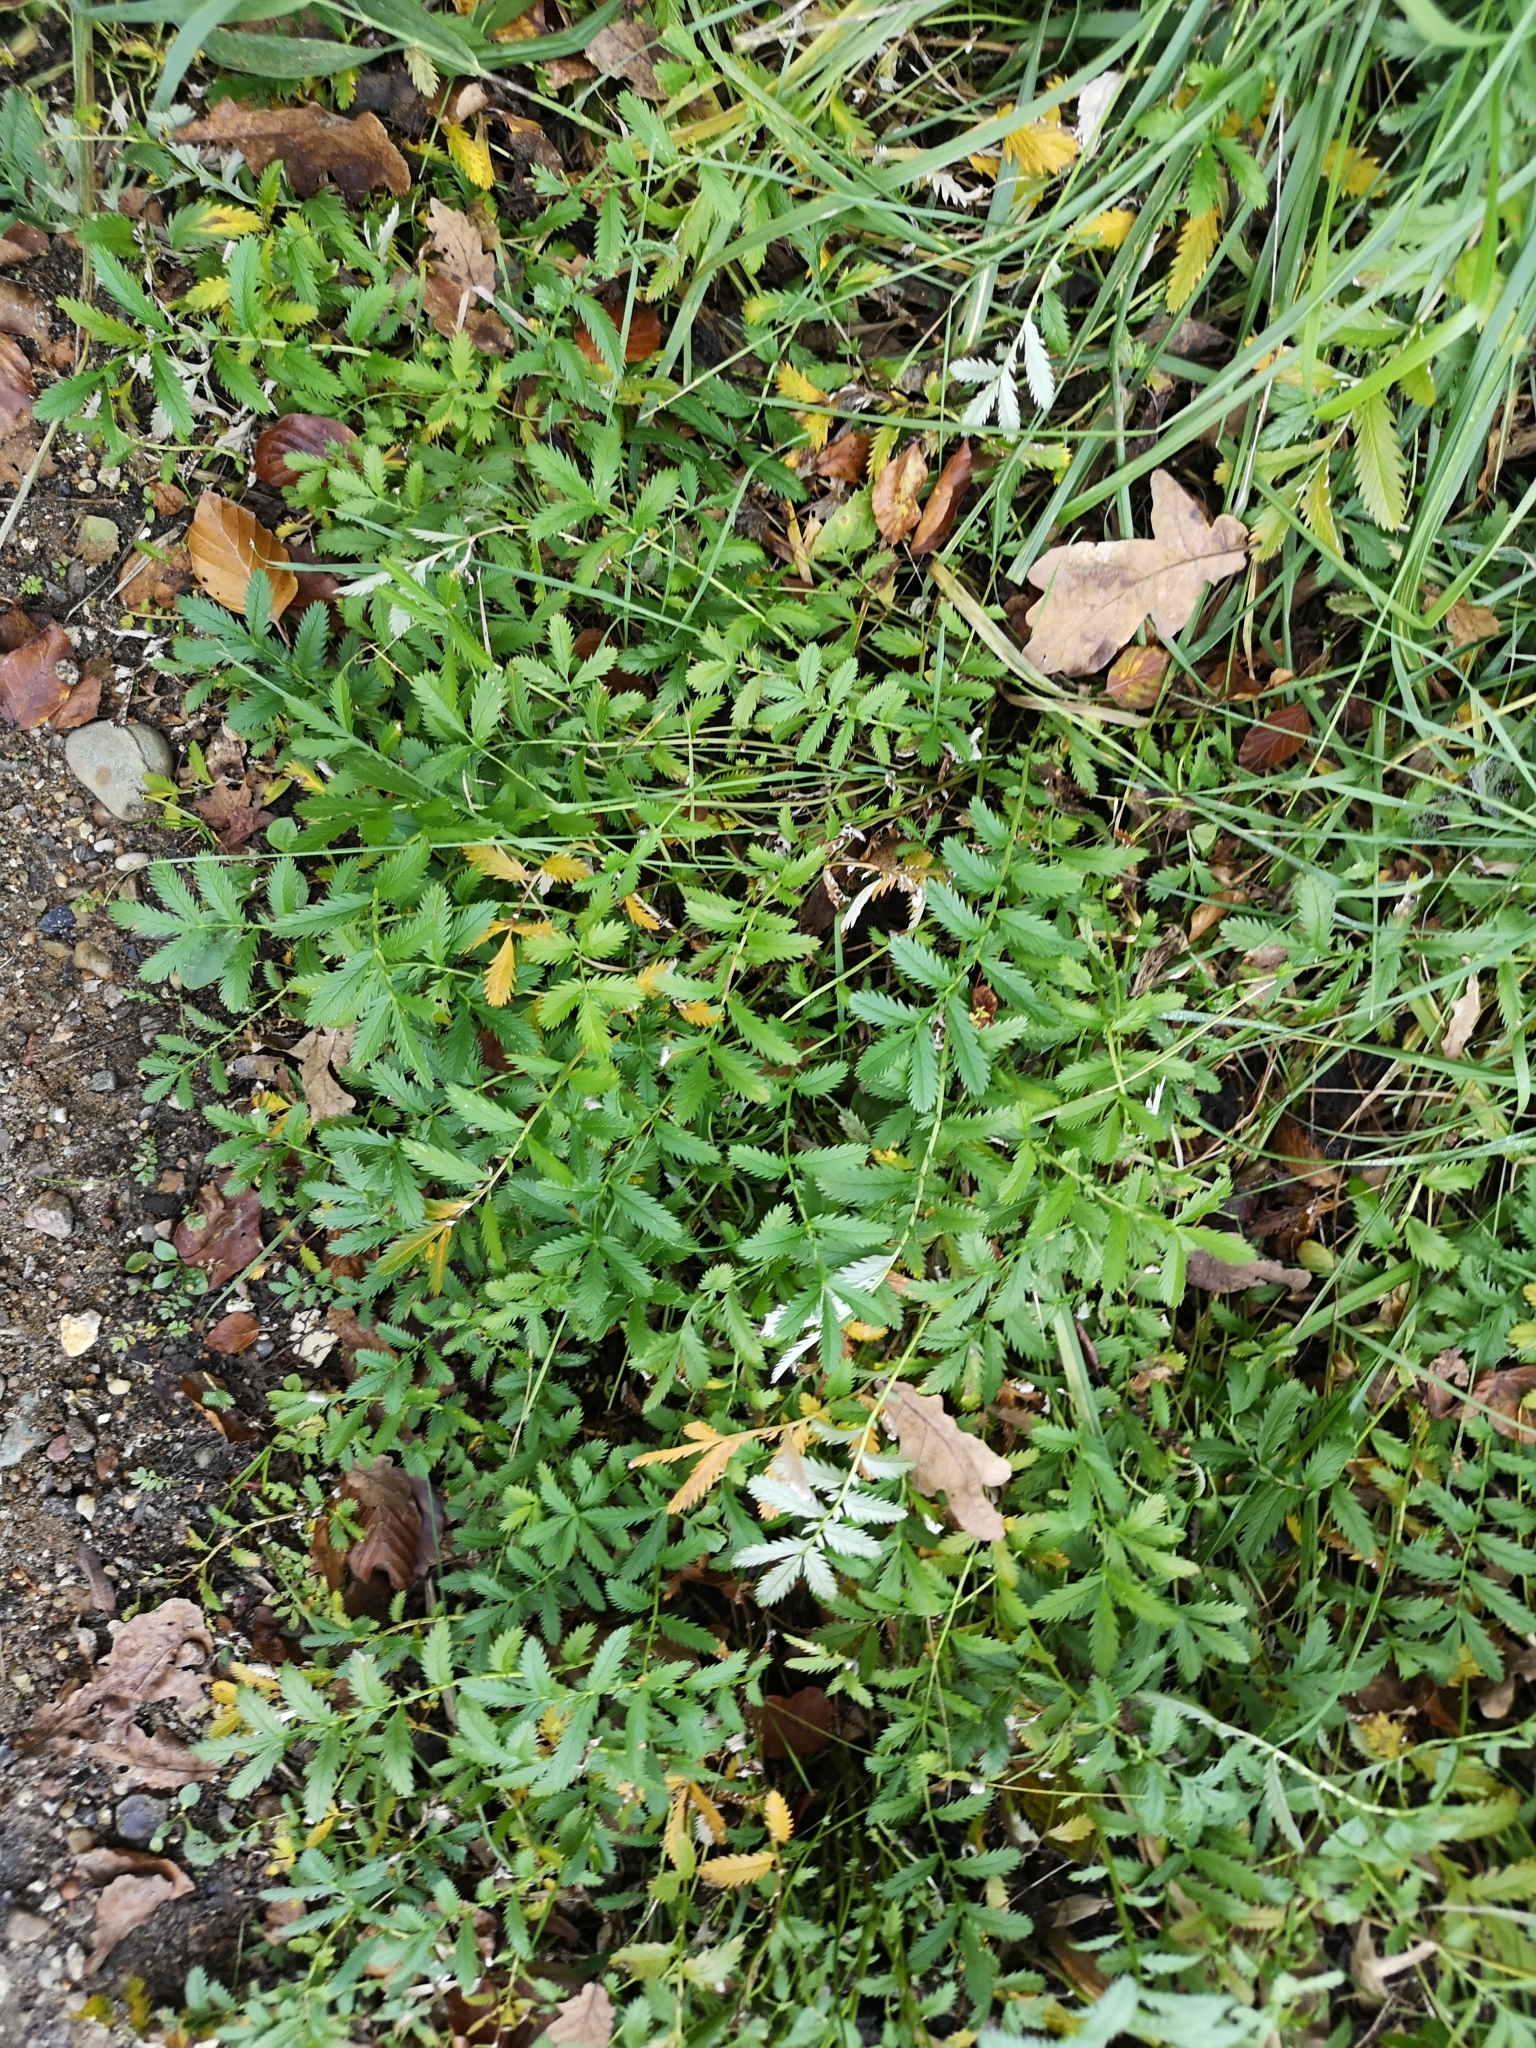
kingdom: Plantae
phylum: Tracheophyta
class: Magnoliopsida
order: Rosales
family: Rosaceae
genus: Argentina
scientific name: Argentina anserina
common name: Common silverweed
